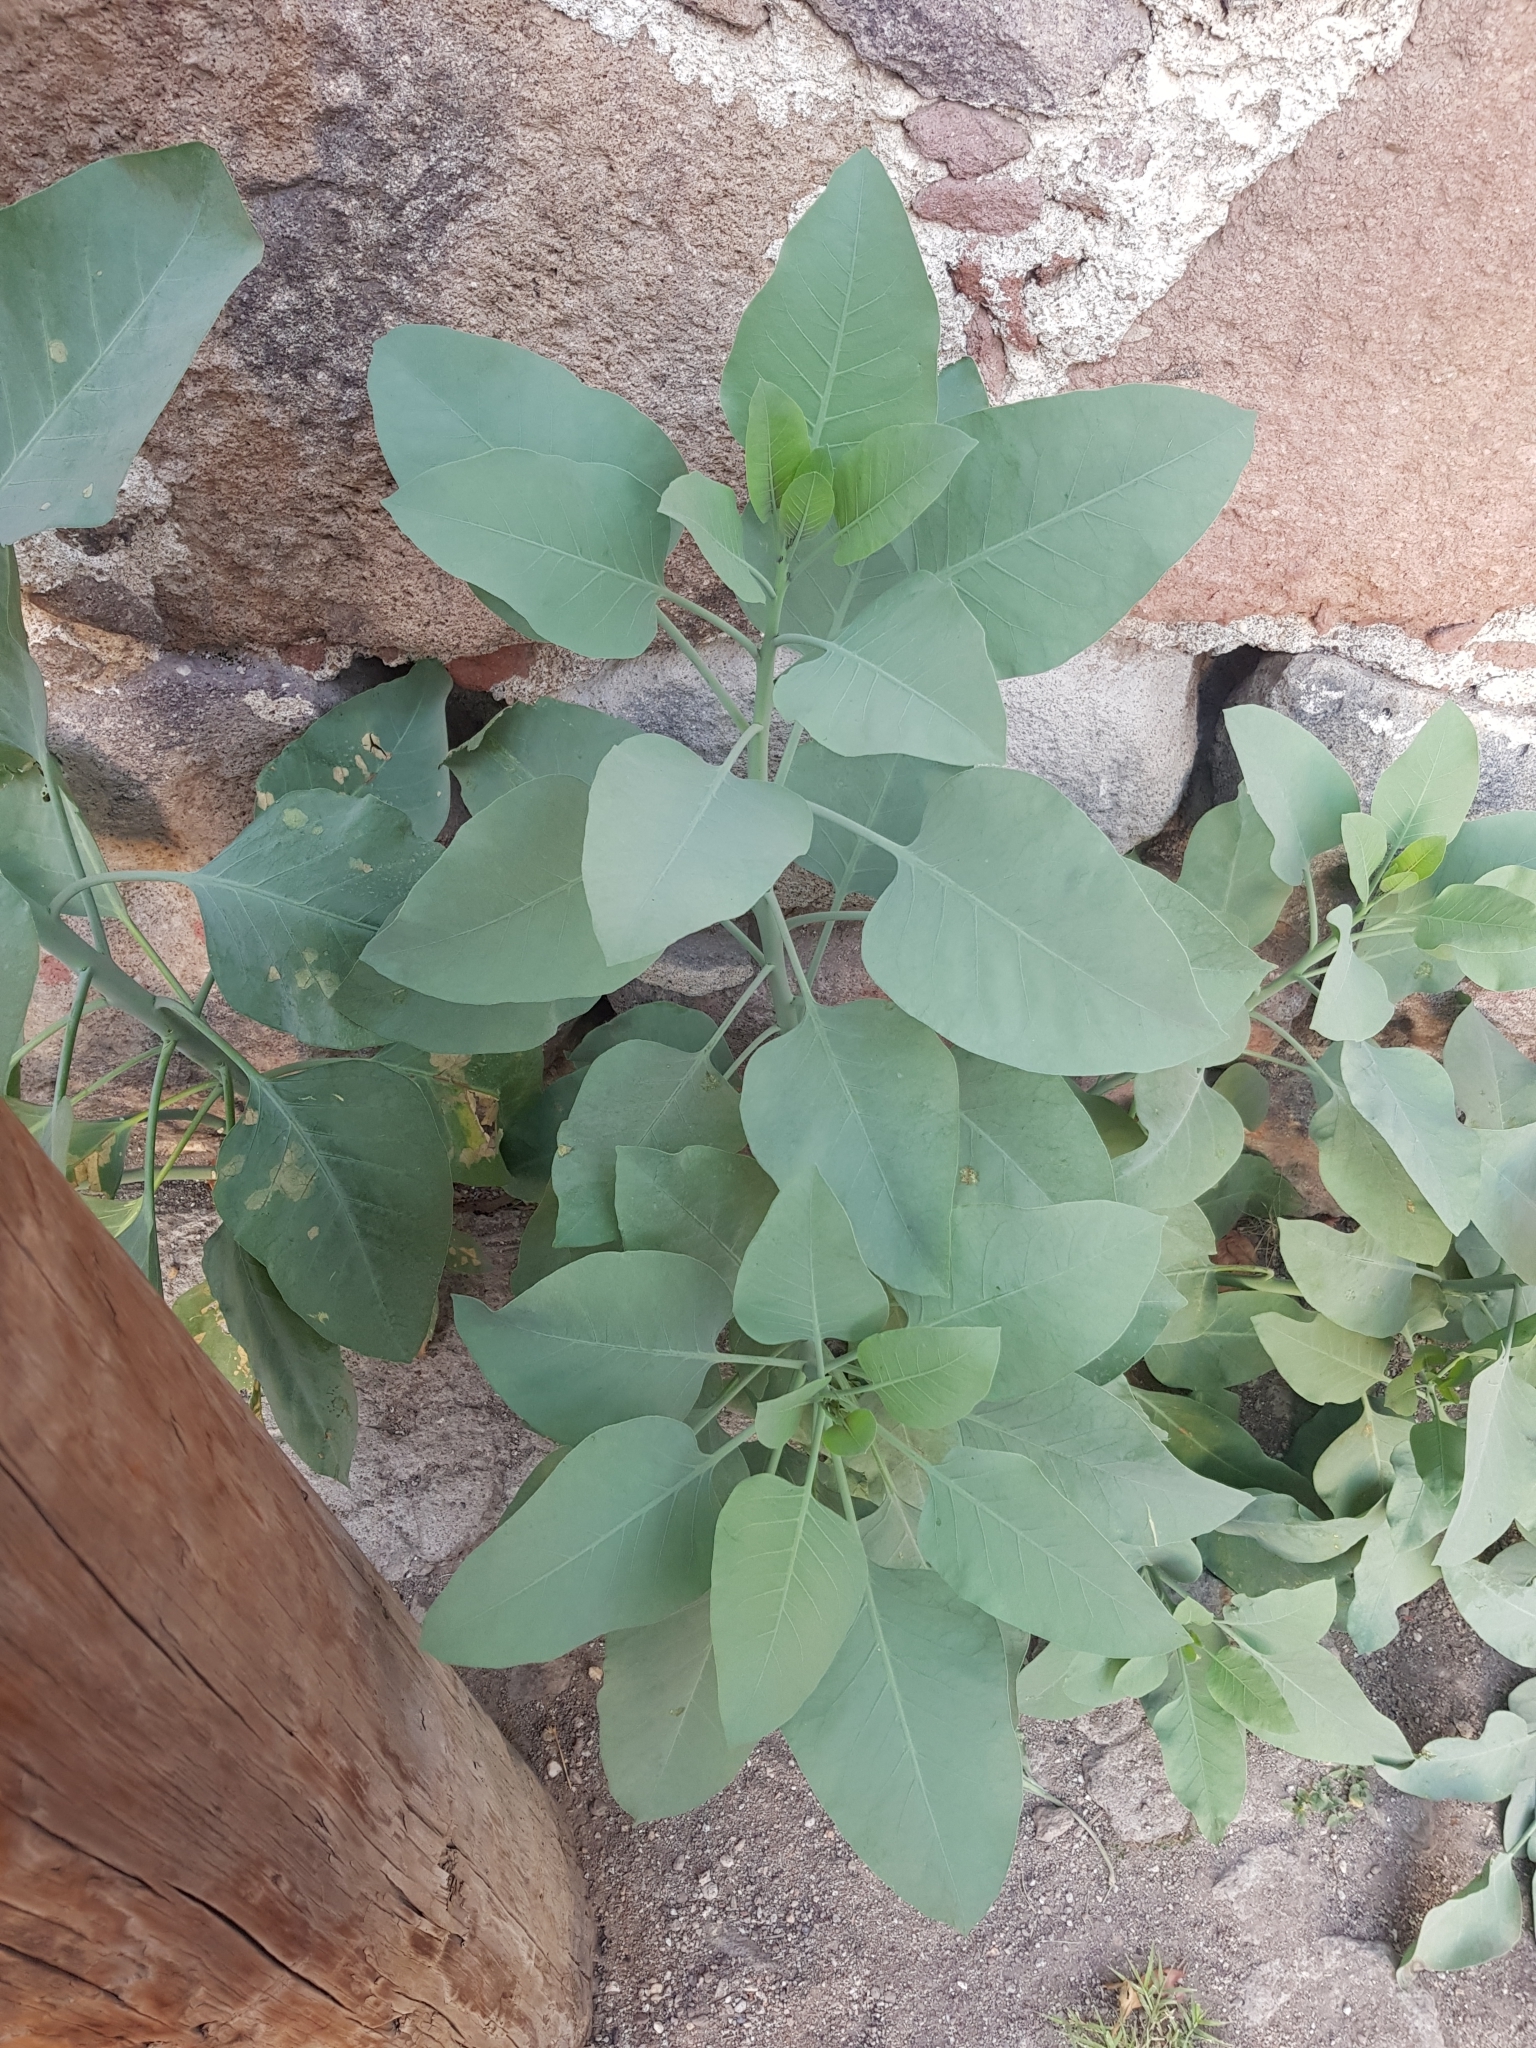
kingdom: Plantae
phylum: Tracheophyta
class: Magnoliopsida
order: Solanales
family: Solanaceae
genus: Nicotiana
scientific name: Nicotiana glauca
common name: Tree tobacco
